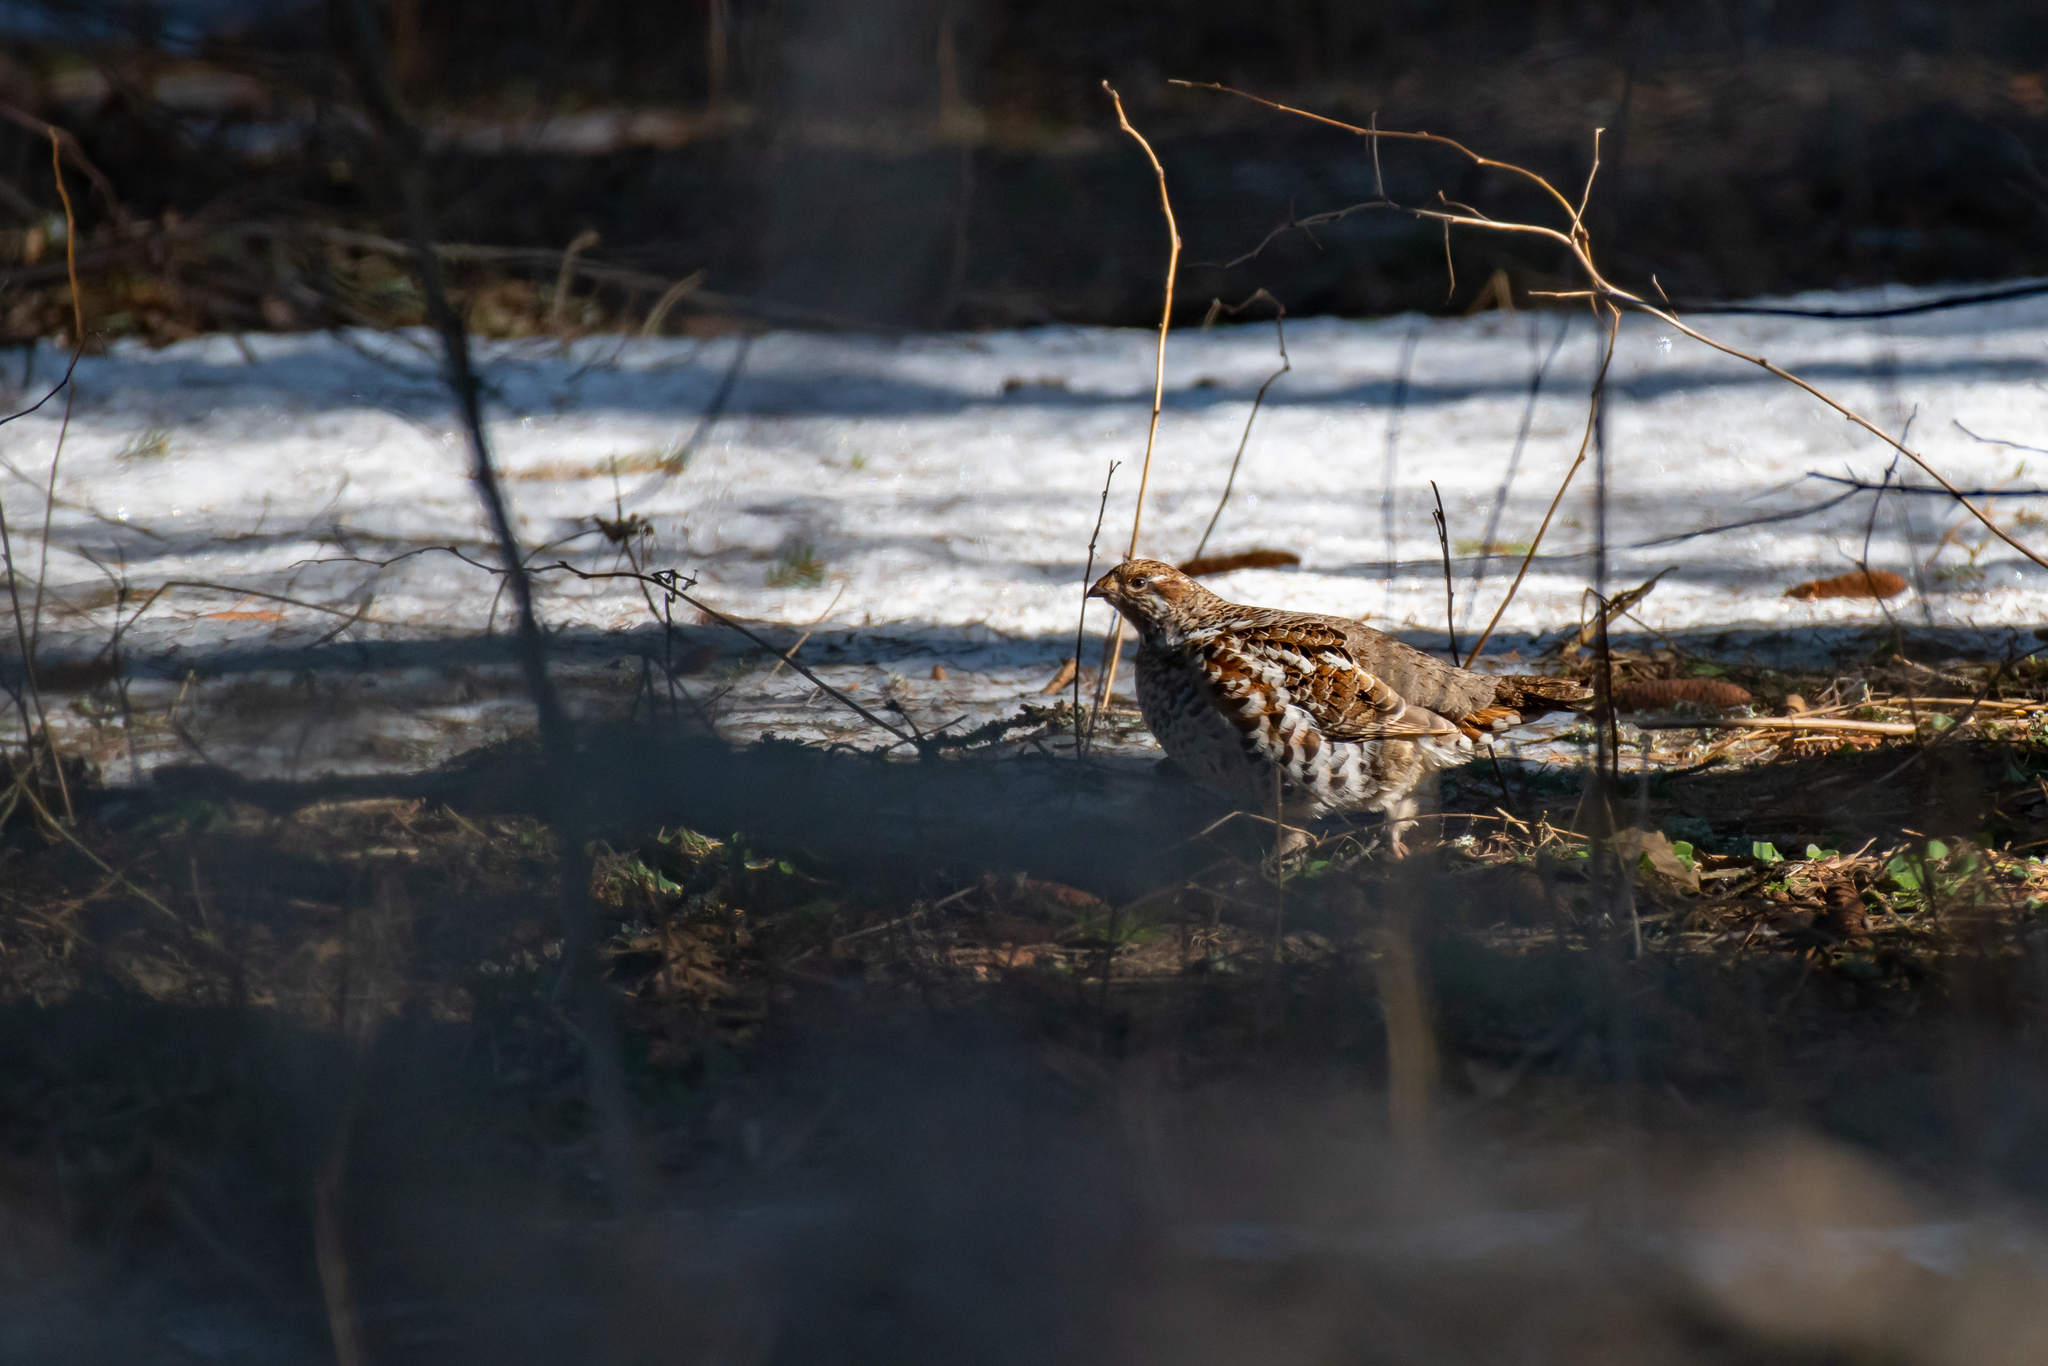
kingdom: Animalia
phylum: Chordata
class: Aves
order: Galliformes
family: Phasianidae
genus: Tetrastes
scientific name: Tetrastes bonasia
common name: Hazel grouse
